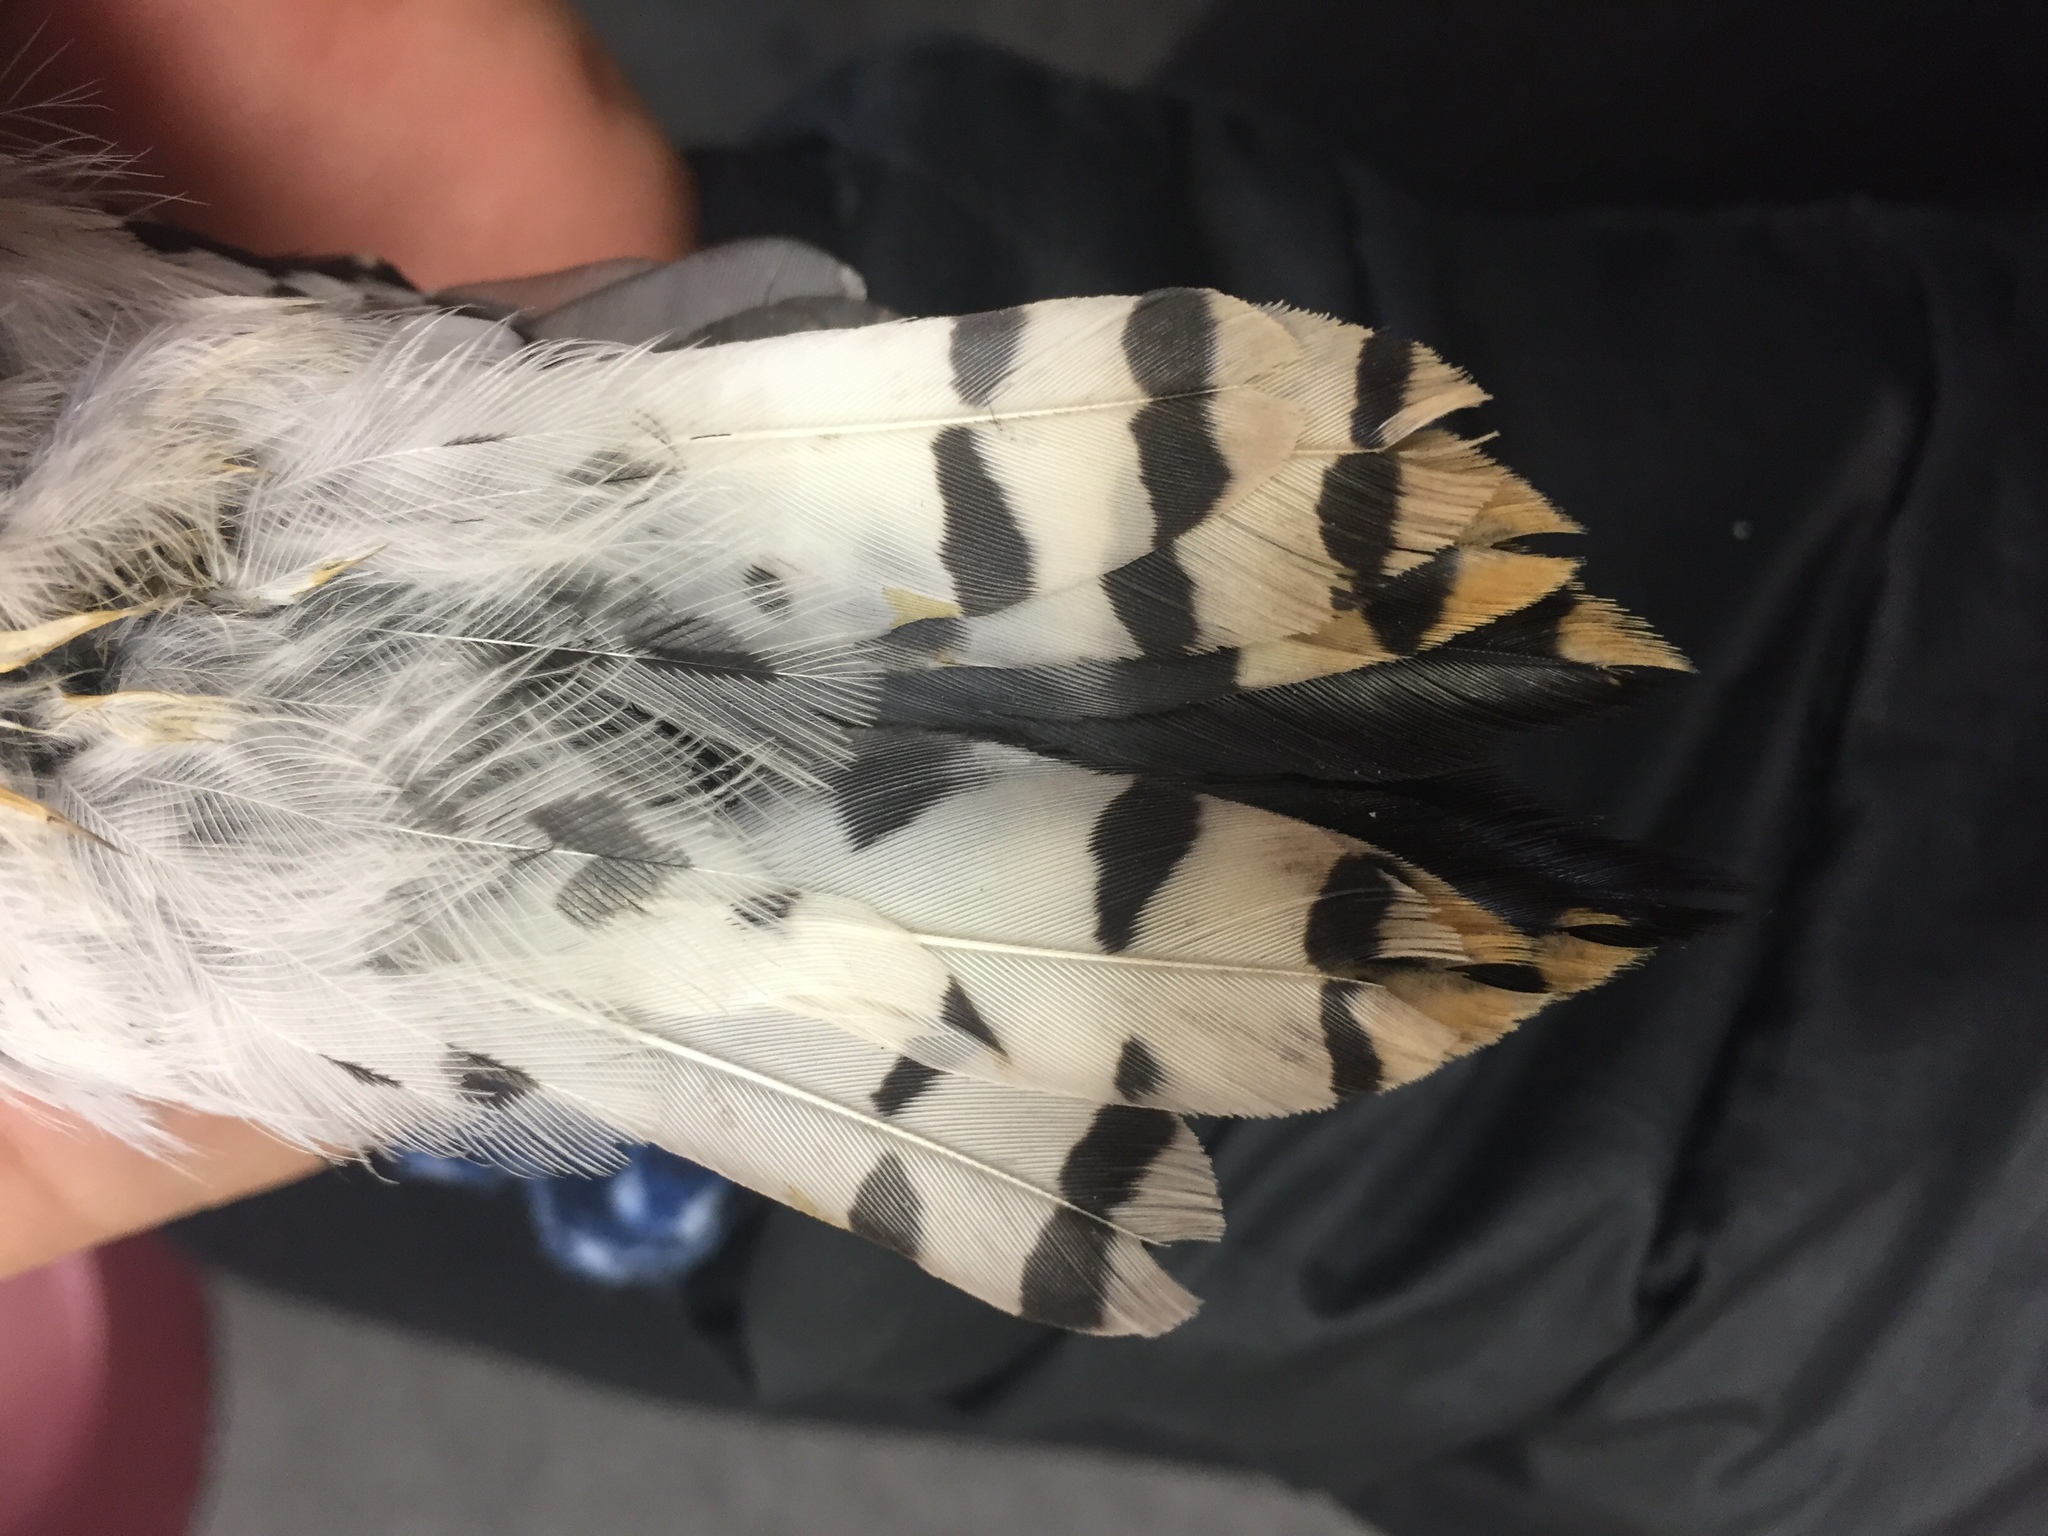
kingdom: Animalia
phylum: Chordata
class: Aves
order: Piciformes
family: Picidae
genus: Dryobates
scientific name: Dryobates pubescens
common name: Downy woodpecker
